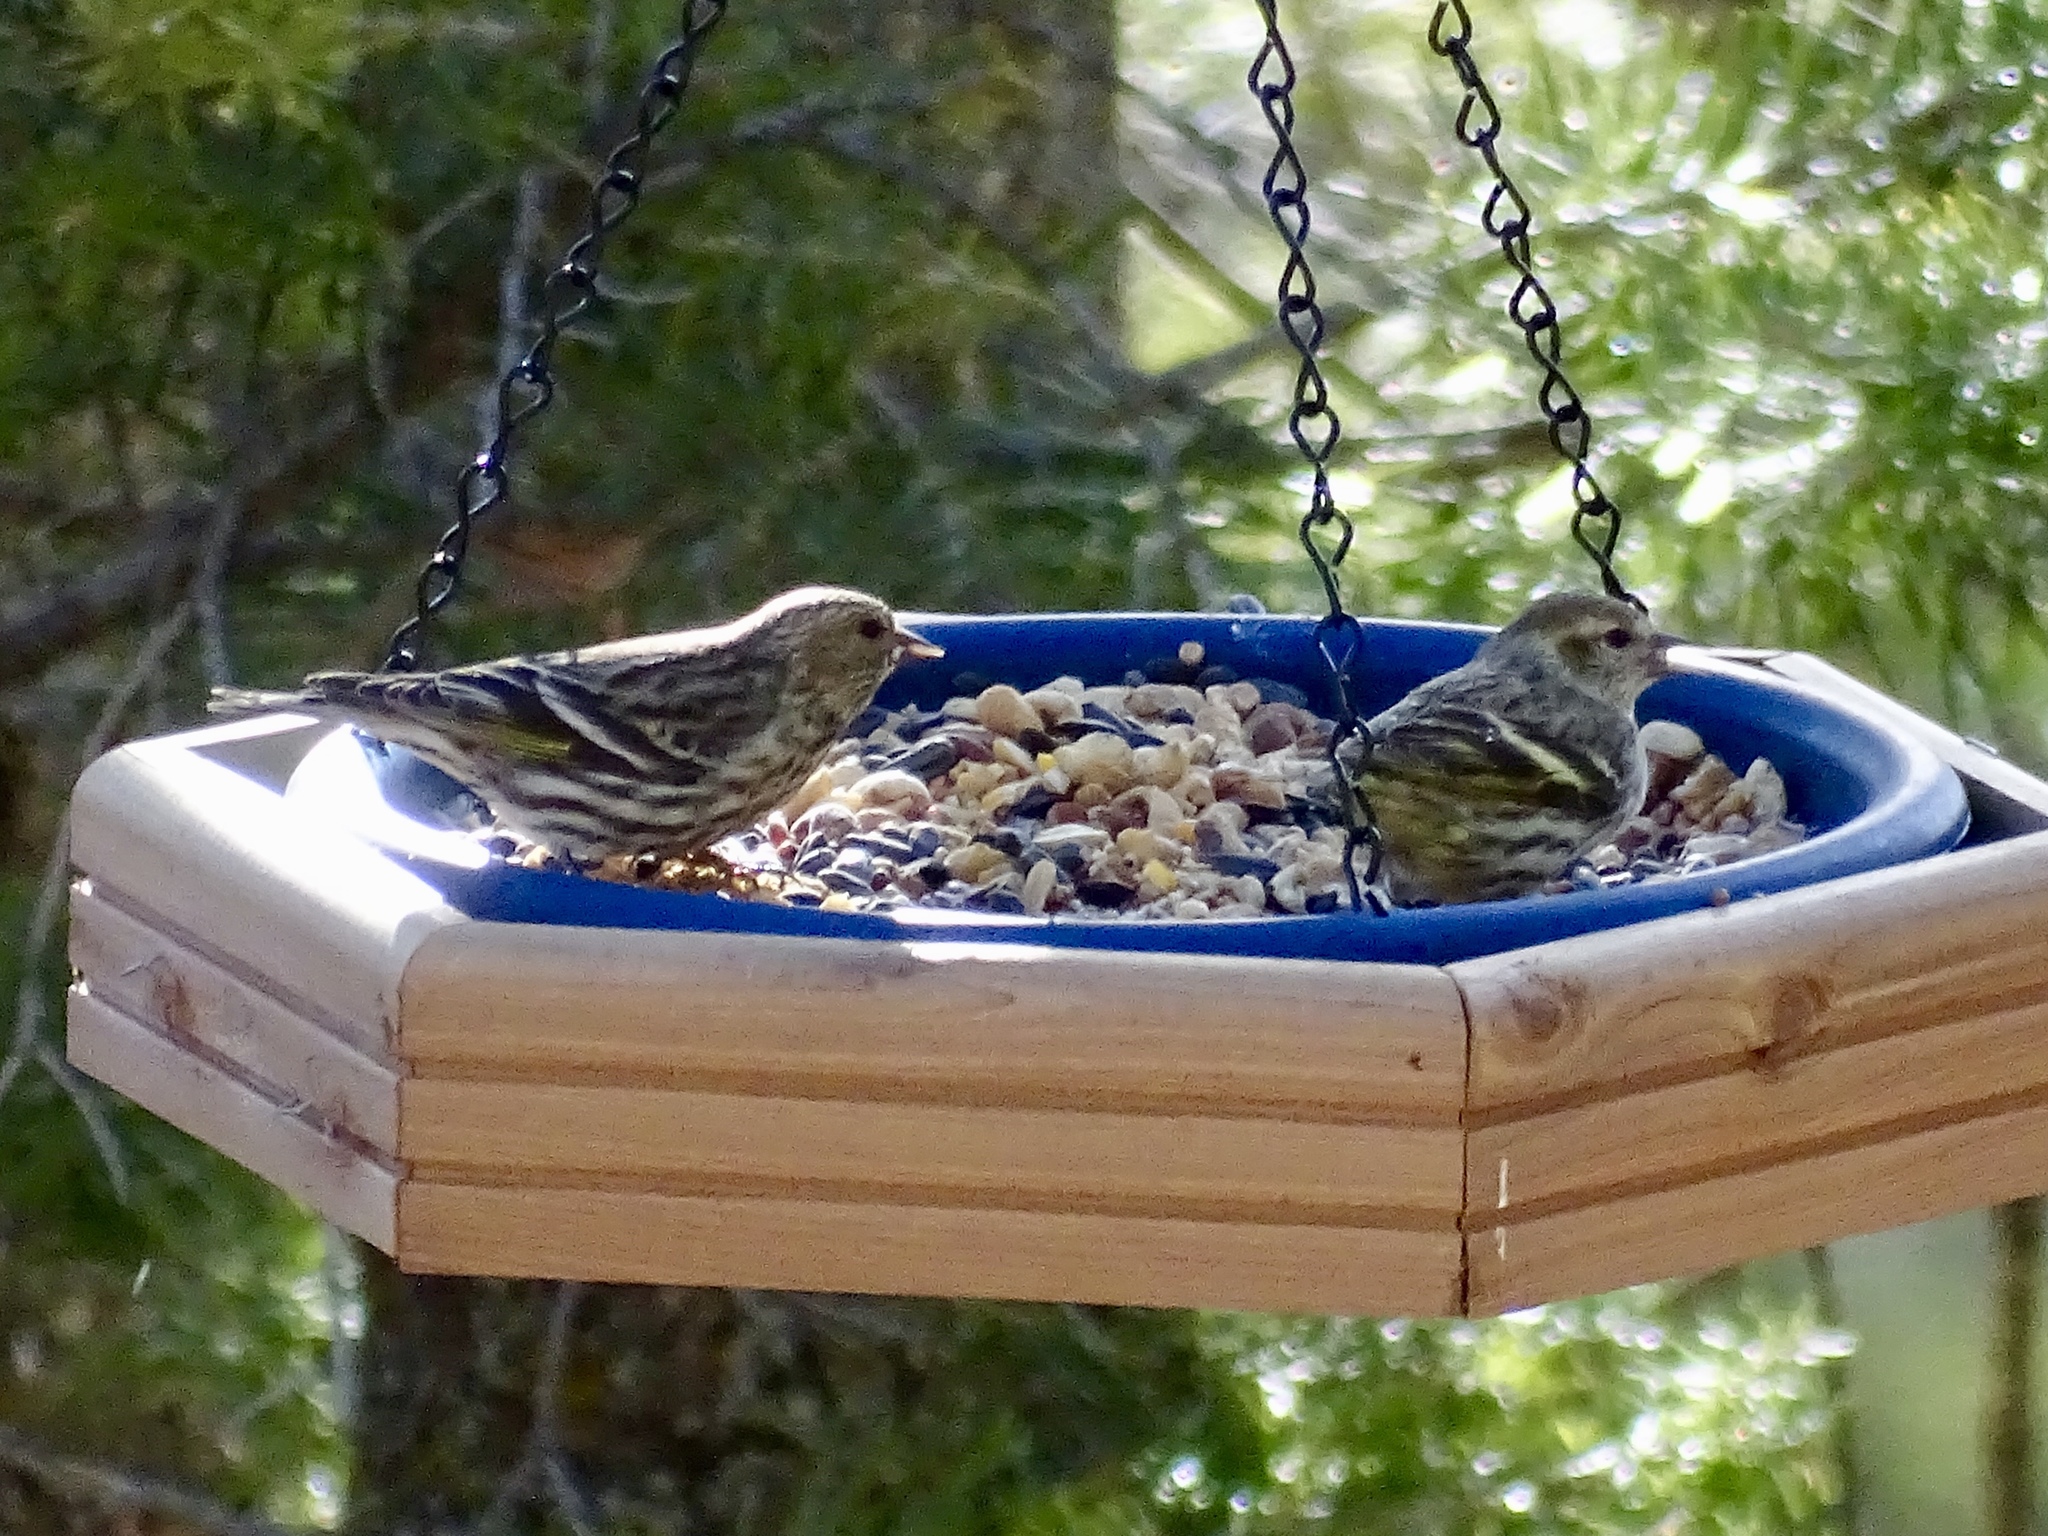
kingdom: Animalia
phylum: Chordata
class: Aves
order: Passeriformes
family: Fringillidae
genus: Spinus
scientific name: Spinus pinus
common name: Pine siskin
